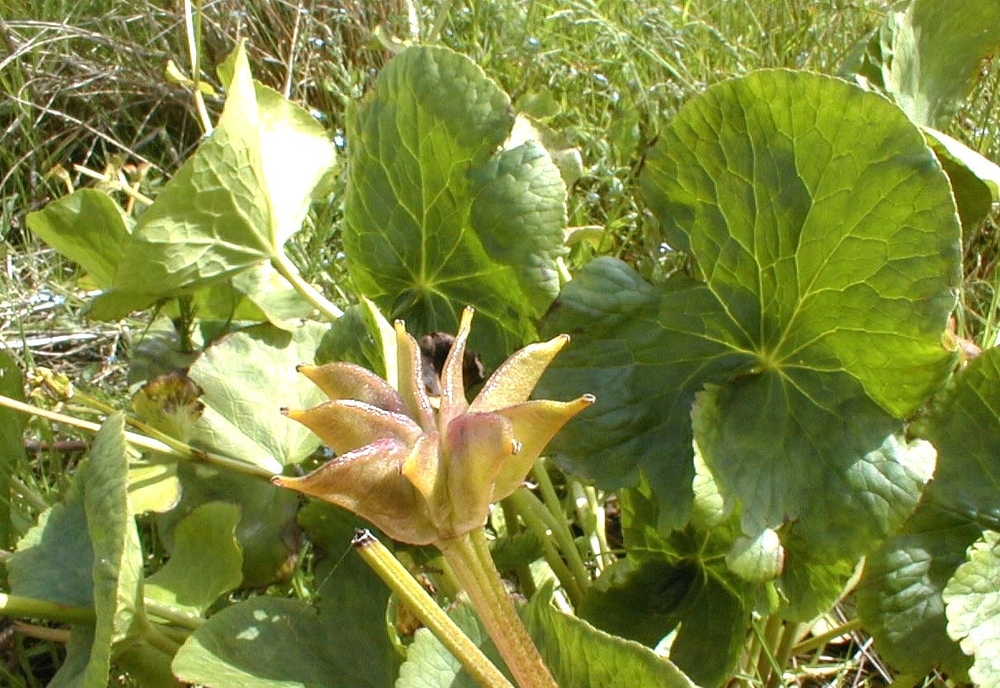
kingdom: Plantae
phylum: Tracheophyta
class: Magnoliopsida
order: Ranunculales
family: Ranunculaceae
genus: Caltha
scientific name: Caltha palustris
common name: Marsh marigold
